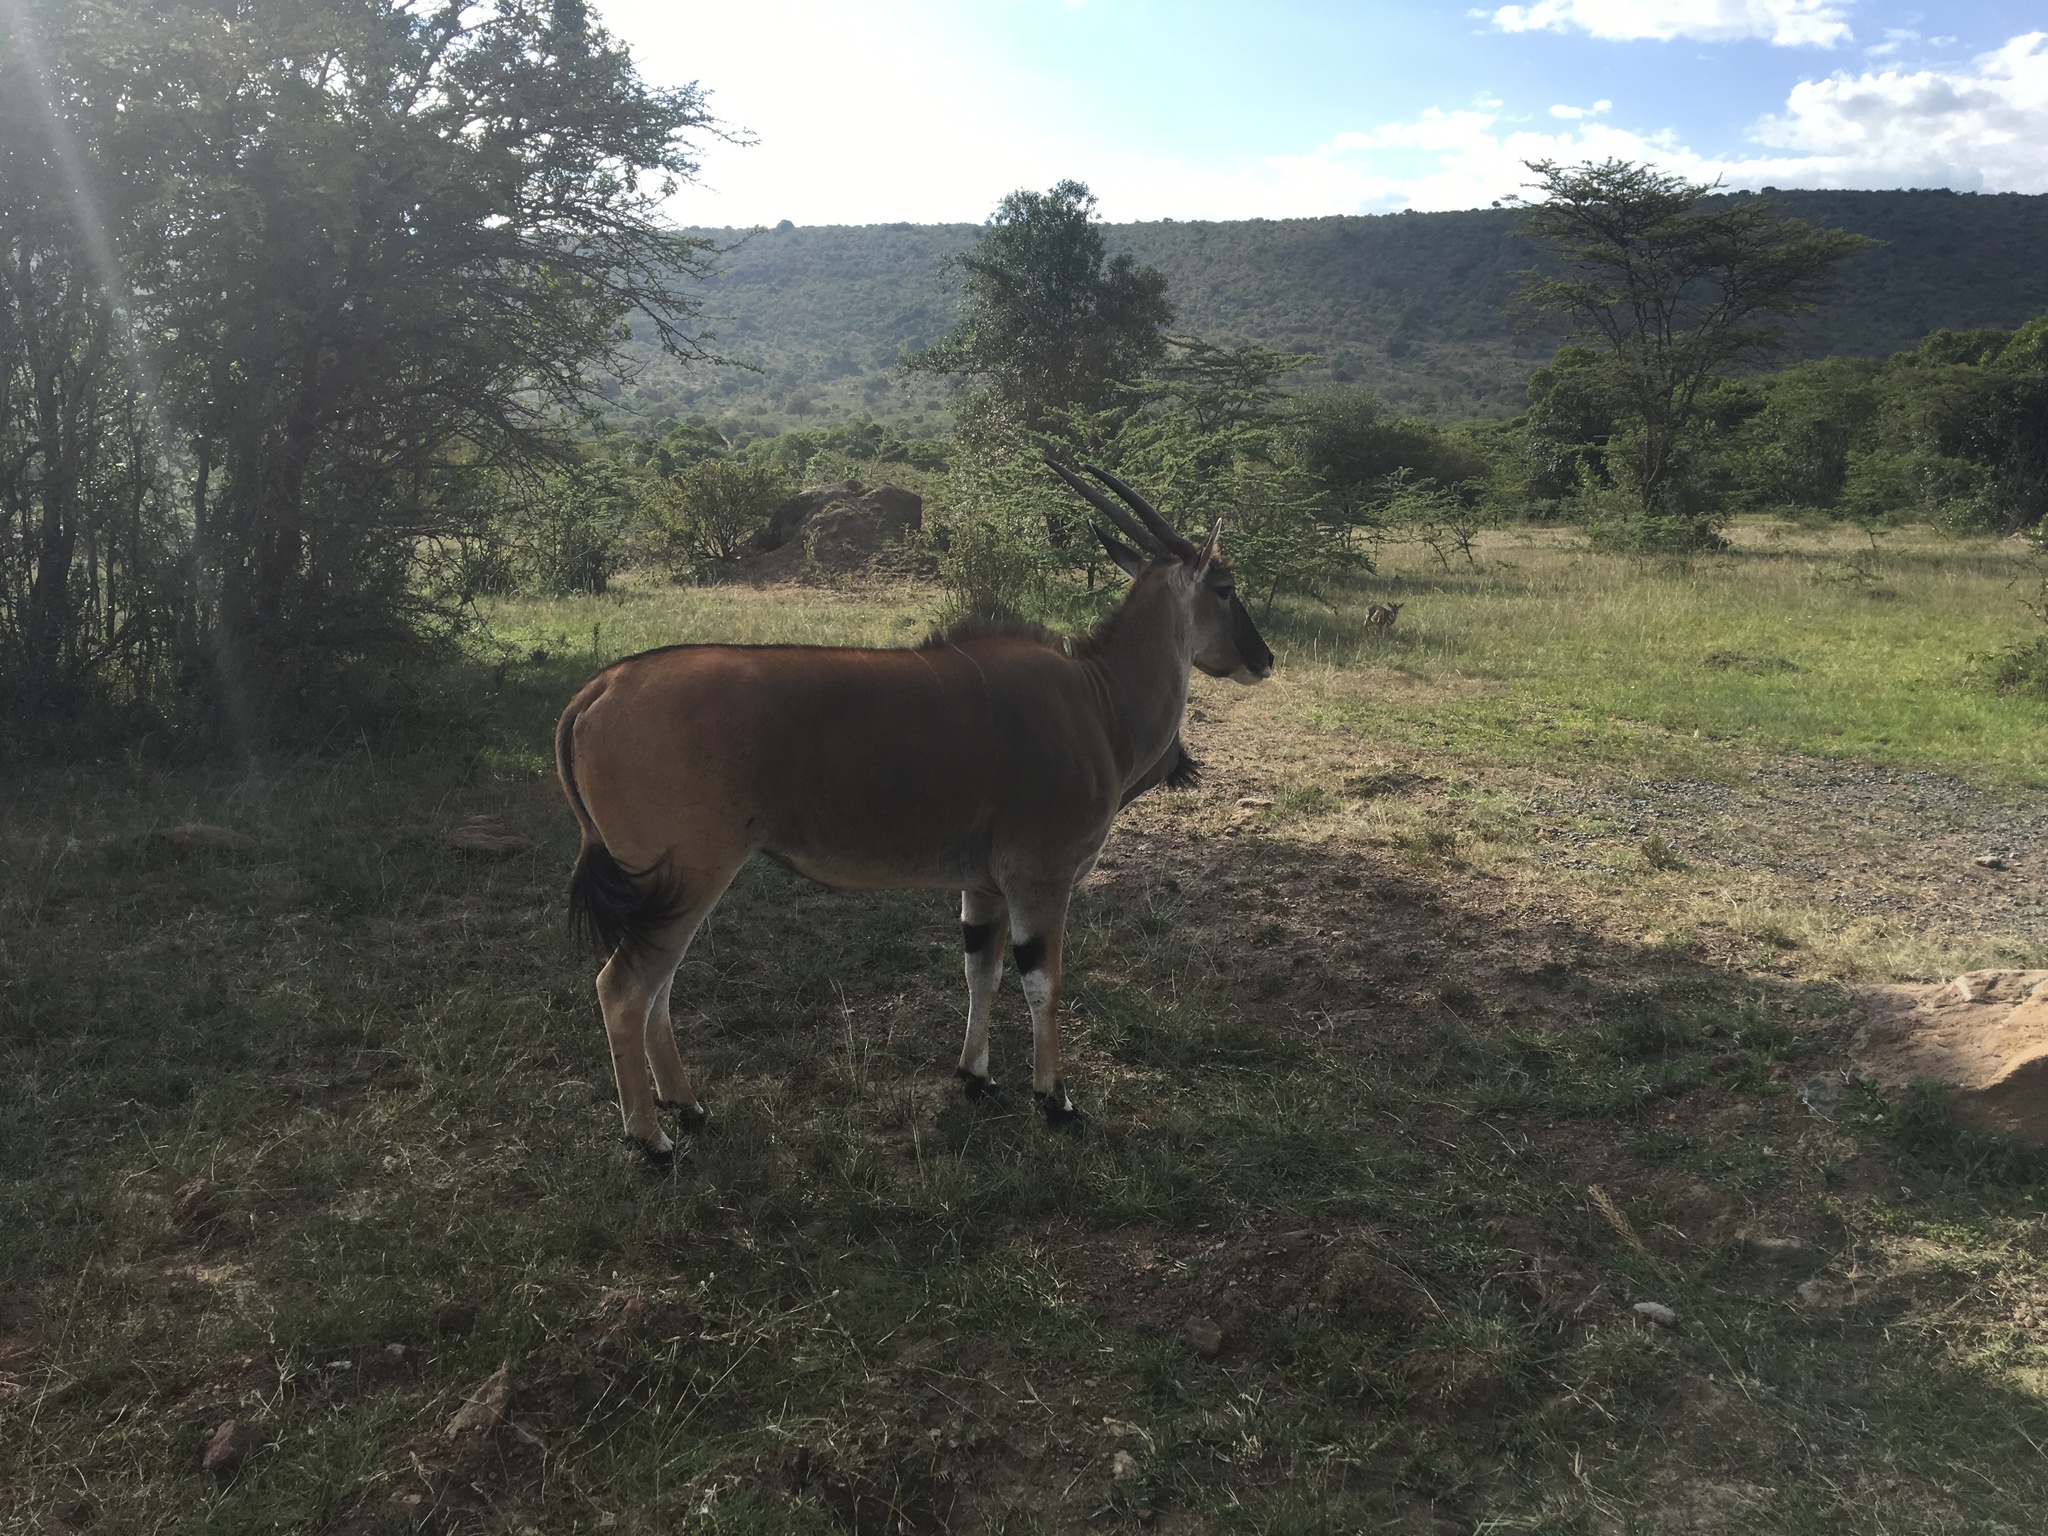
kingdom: Animalia
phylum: Chordata
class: Mammalia
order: Artiodactyla
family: Bovidae
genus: Taurotragus
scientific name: Taurotragus oryx
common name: Common eland
